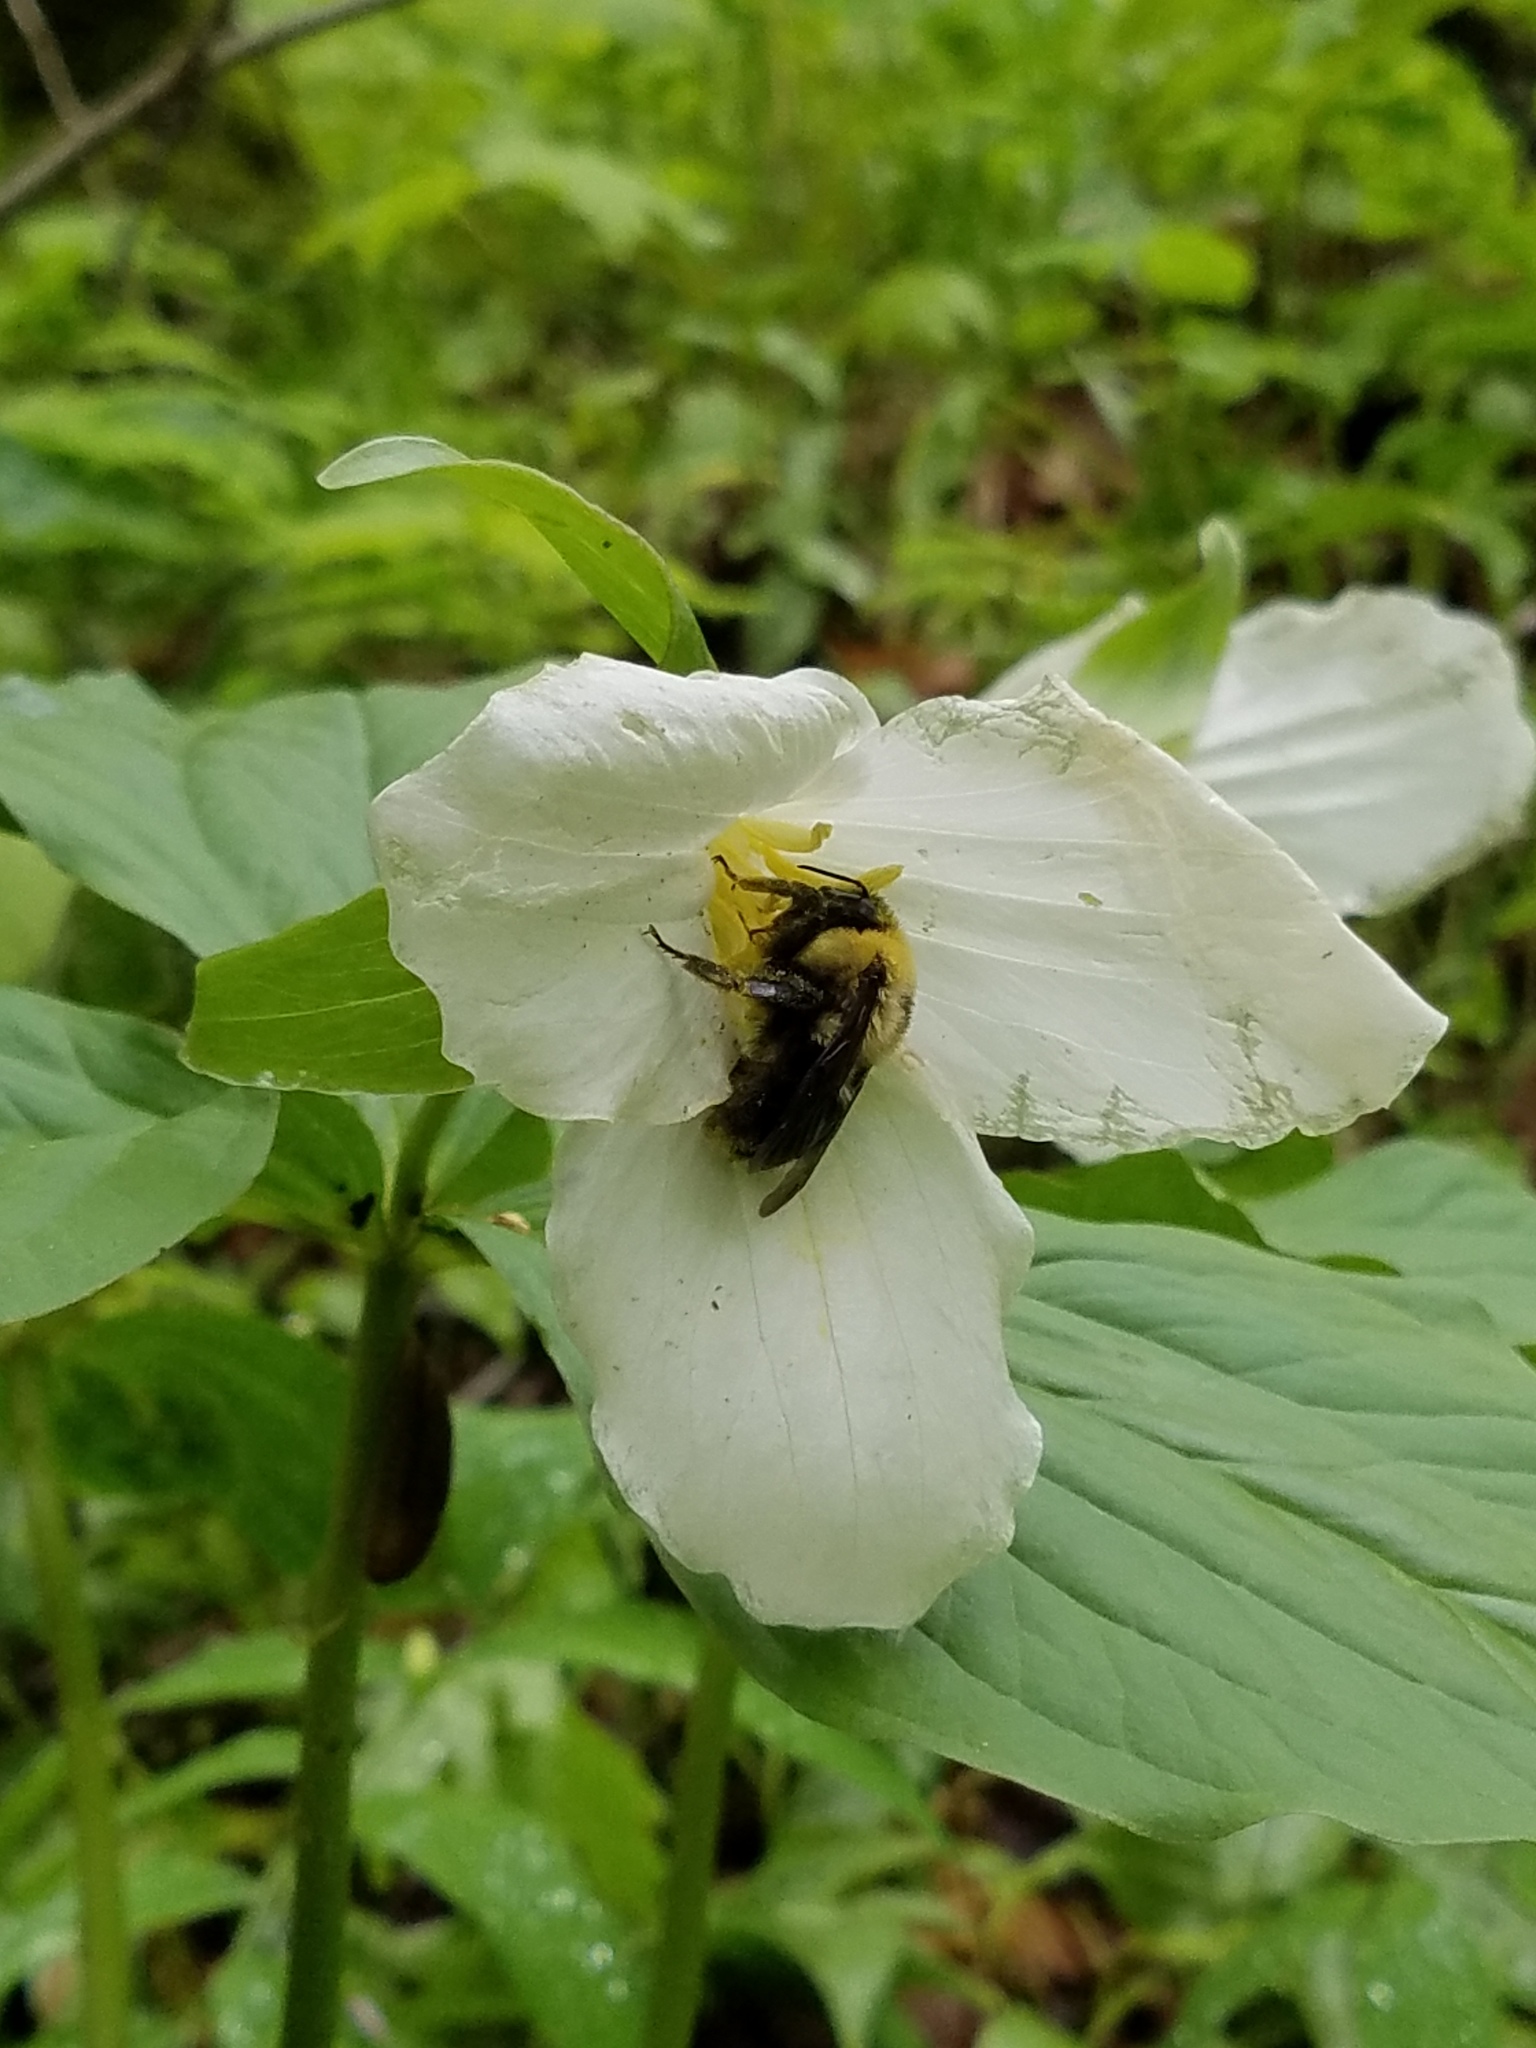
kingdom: Plantae
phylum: Tracheophyta
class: Liliopsida
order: Liliales
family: Melanthiaceae
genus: Trillium
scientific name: Trillium grandiflorum
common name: Great white trillium
